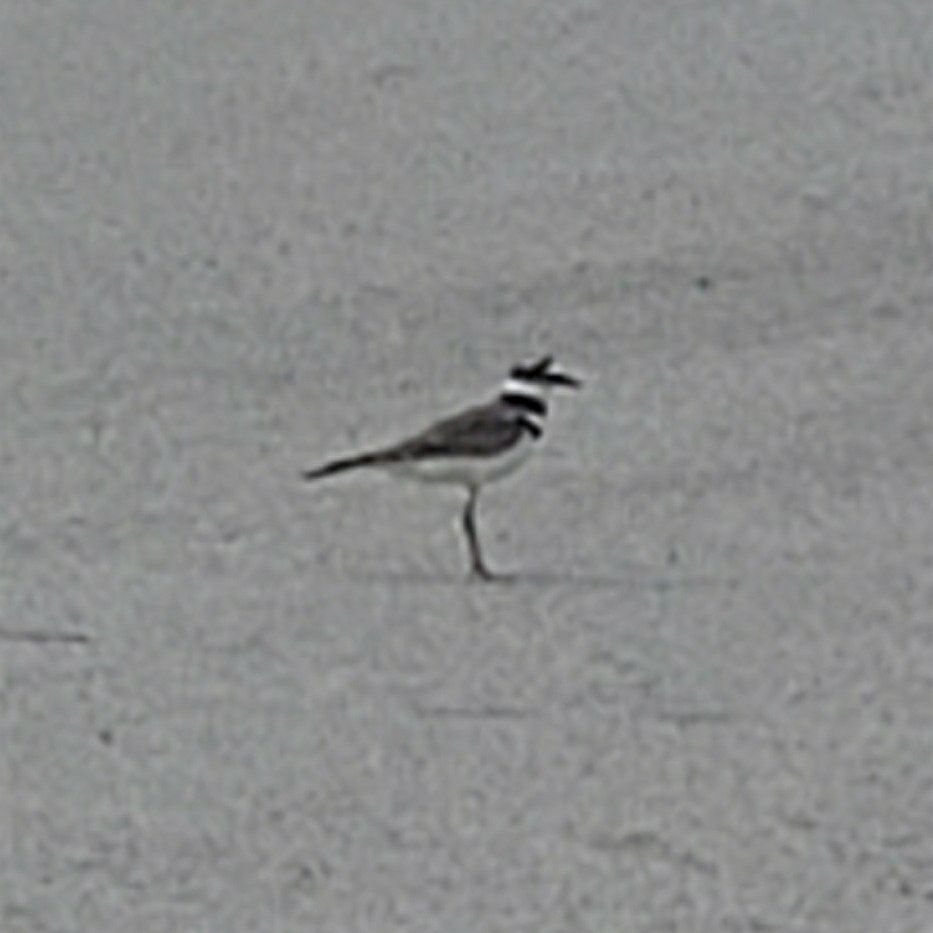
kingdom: Animalia
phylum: Chordata
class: Aves
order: Charadriiformes
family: Charadriidae
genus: Charadrius
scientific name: Charadrius vociferus
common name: Killdeer
